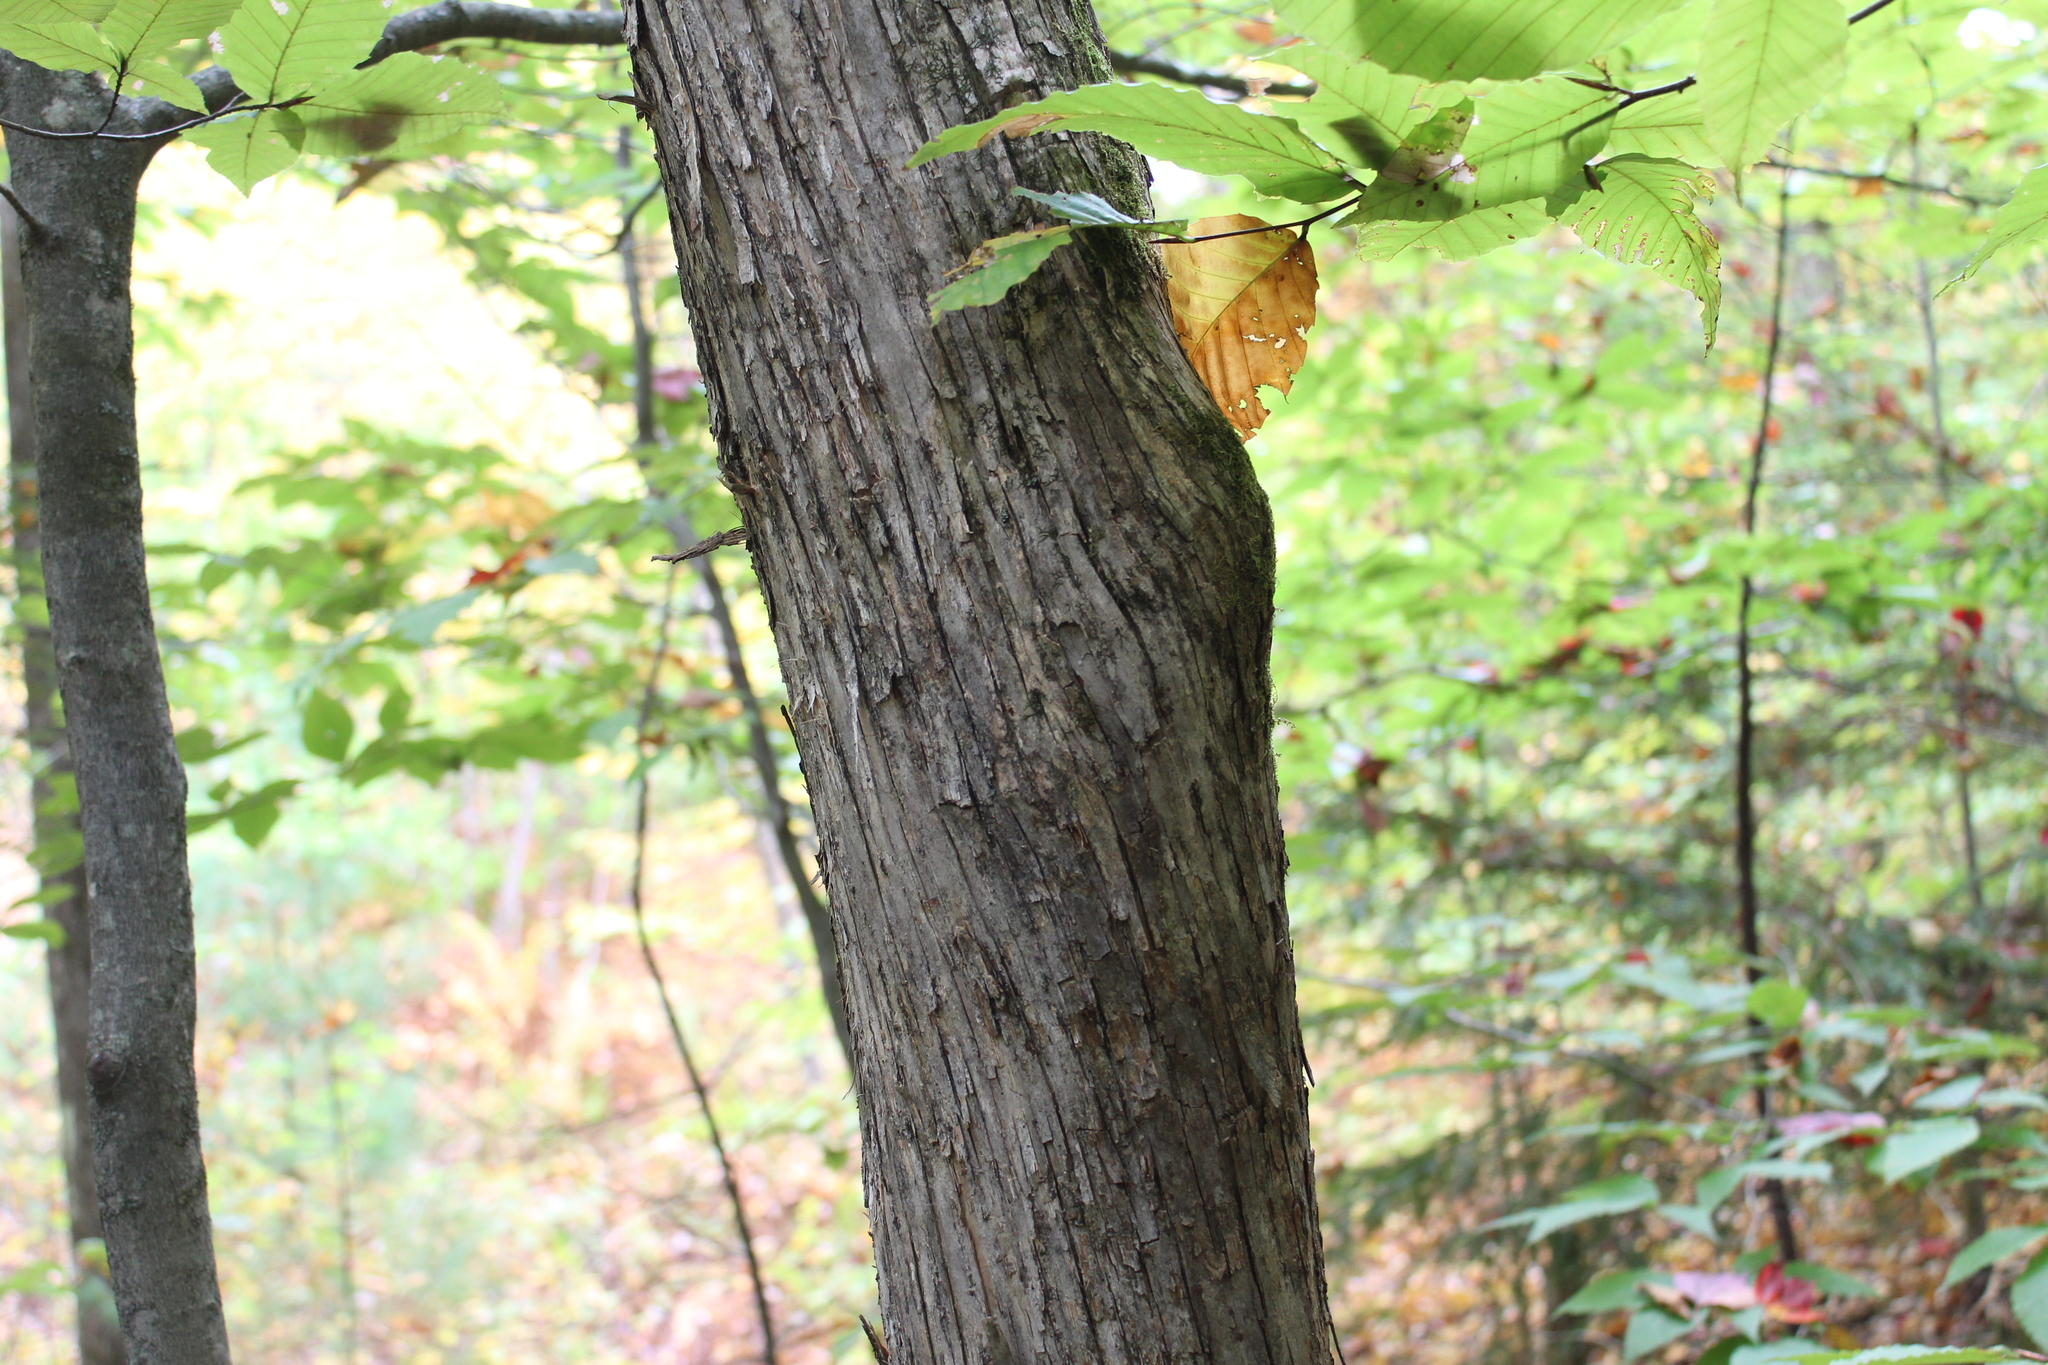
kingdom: Plantae
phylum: Tracheophyta
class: Magnoliopsida
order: Fagales
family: Betulaceae
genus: Ostrya
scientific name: Ostrya virginiana
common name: Ironwood
